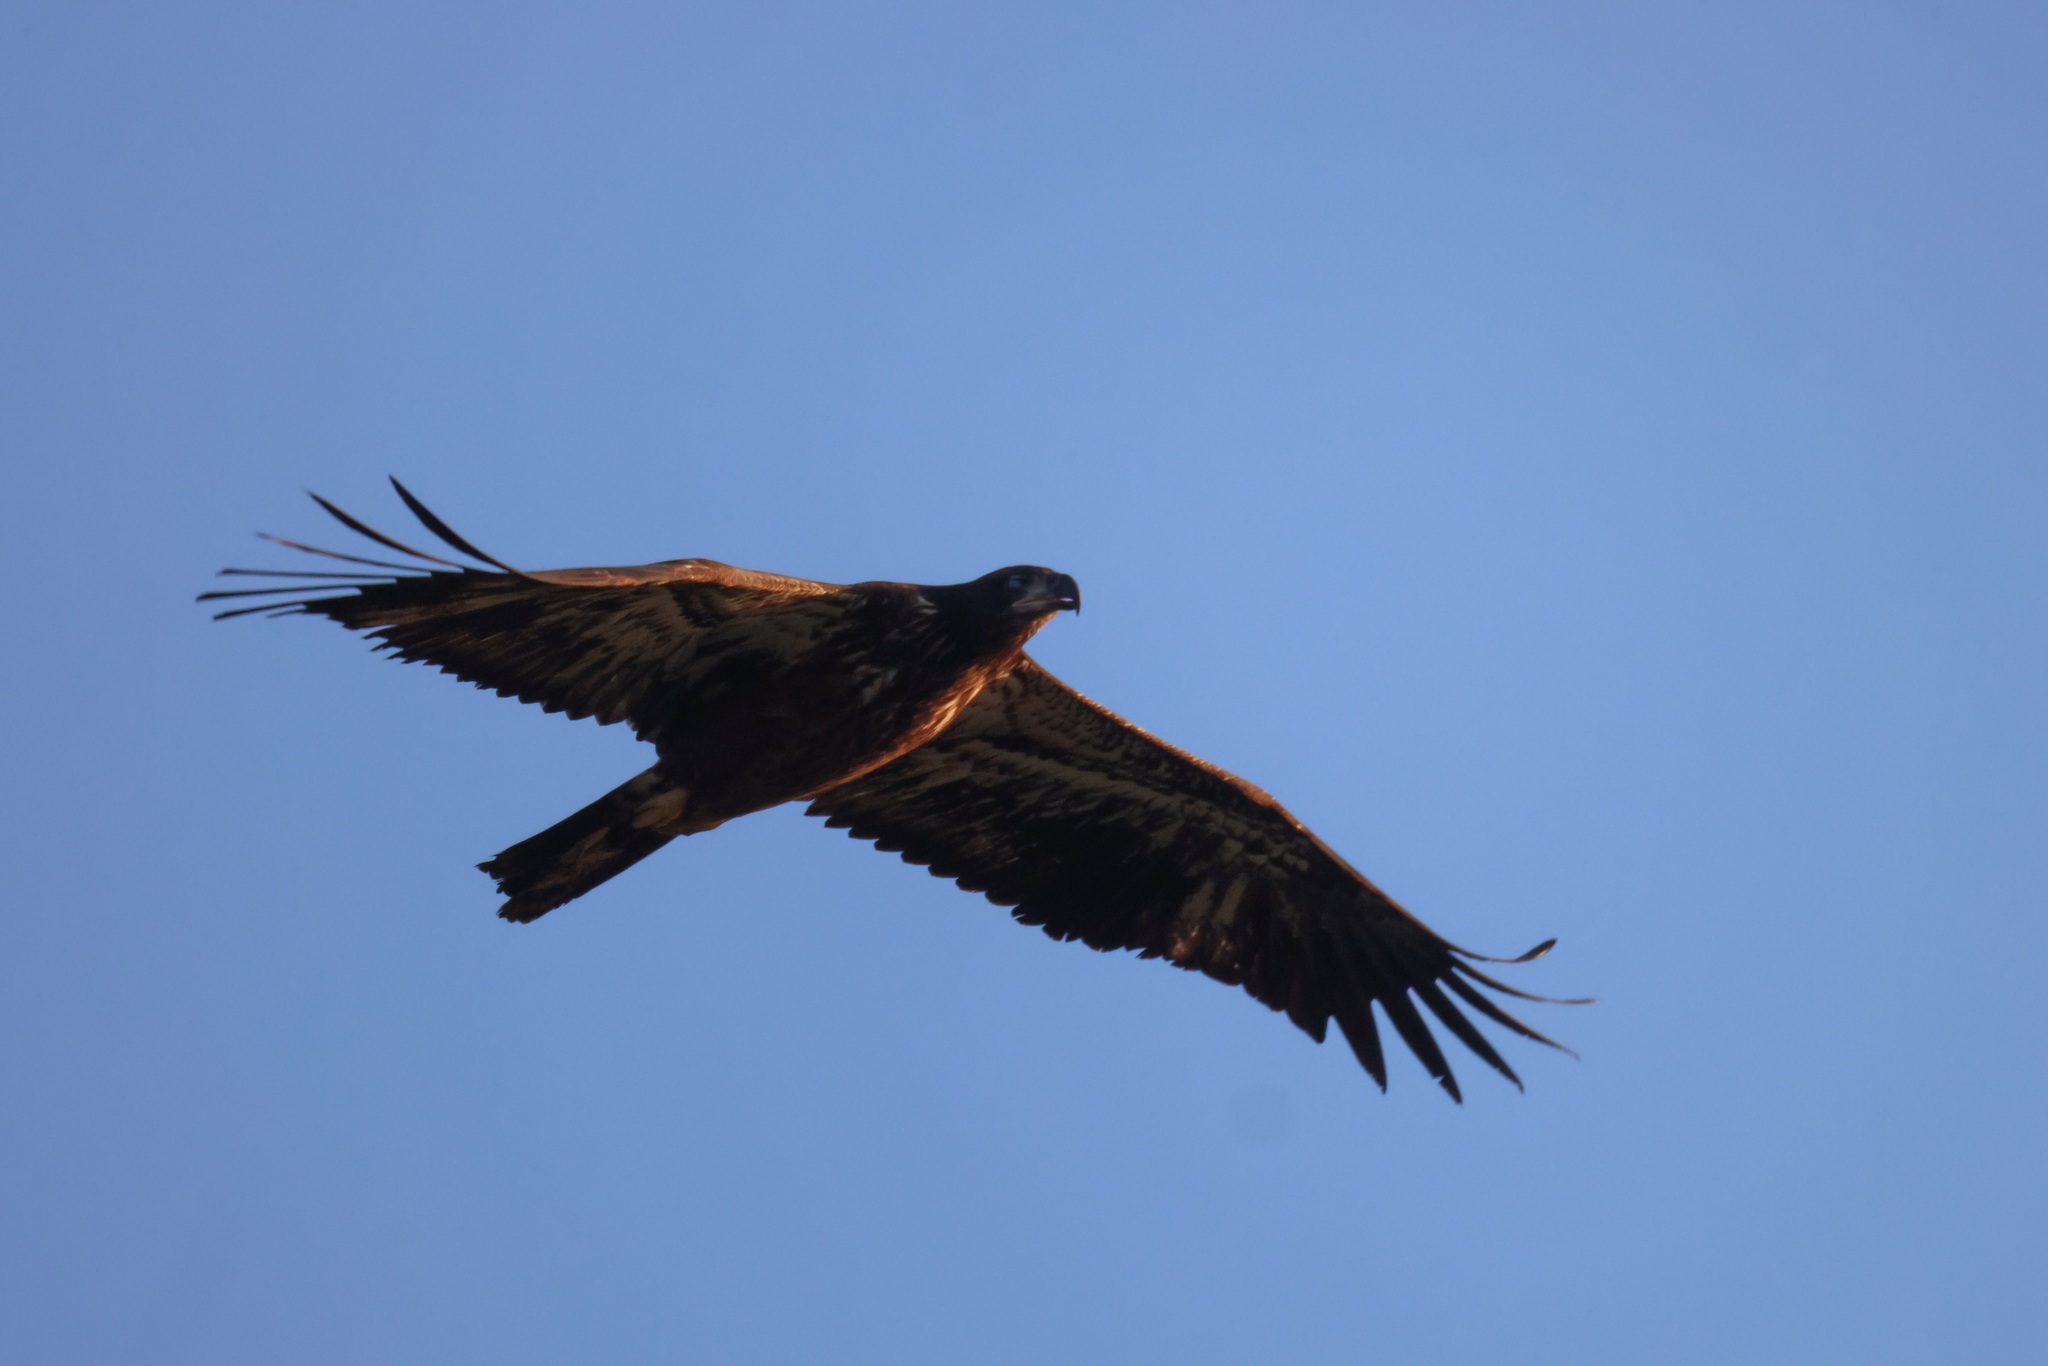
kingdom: Animalia
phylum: Chordata
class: Aves
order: Accipitriformes
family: Accipitridae
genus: Haliaeetus
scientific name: Haliaeetus leucocephalus
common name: Bald eagle
